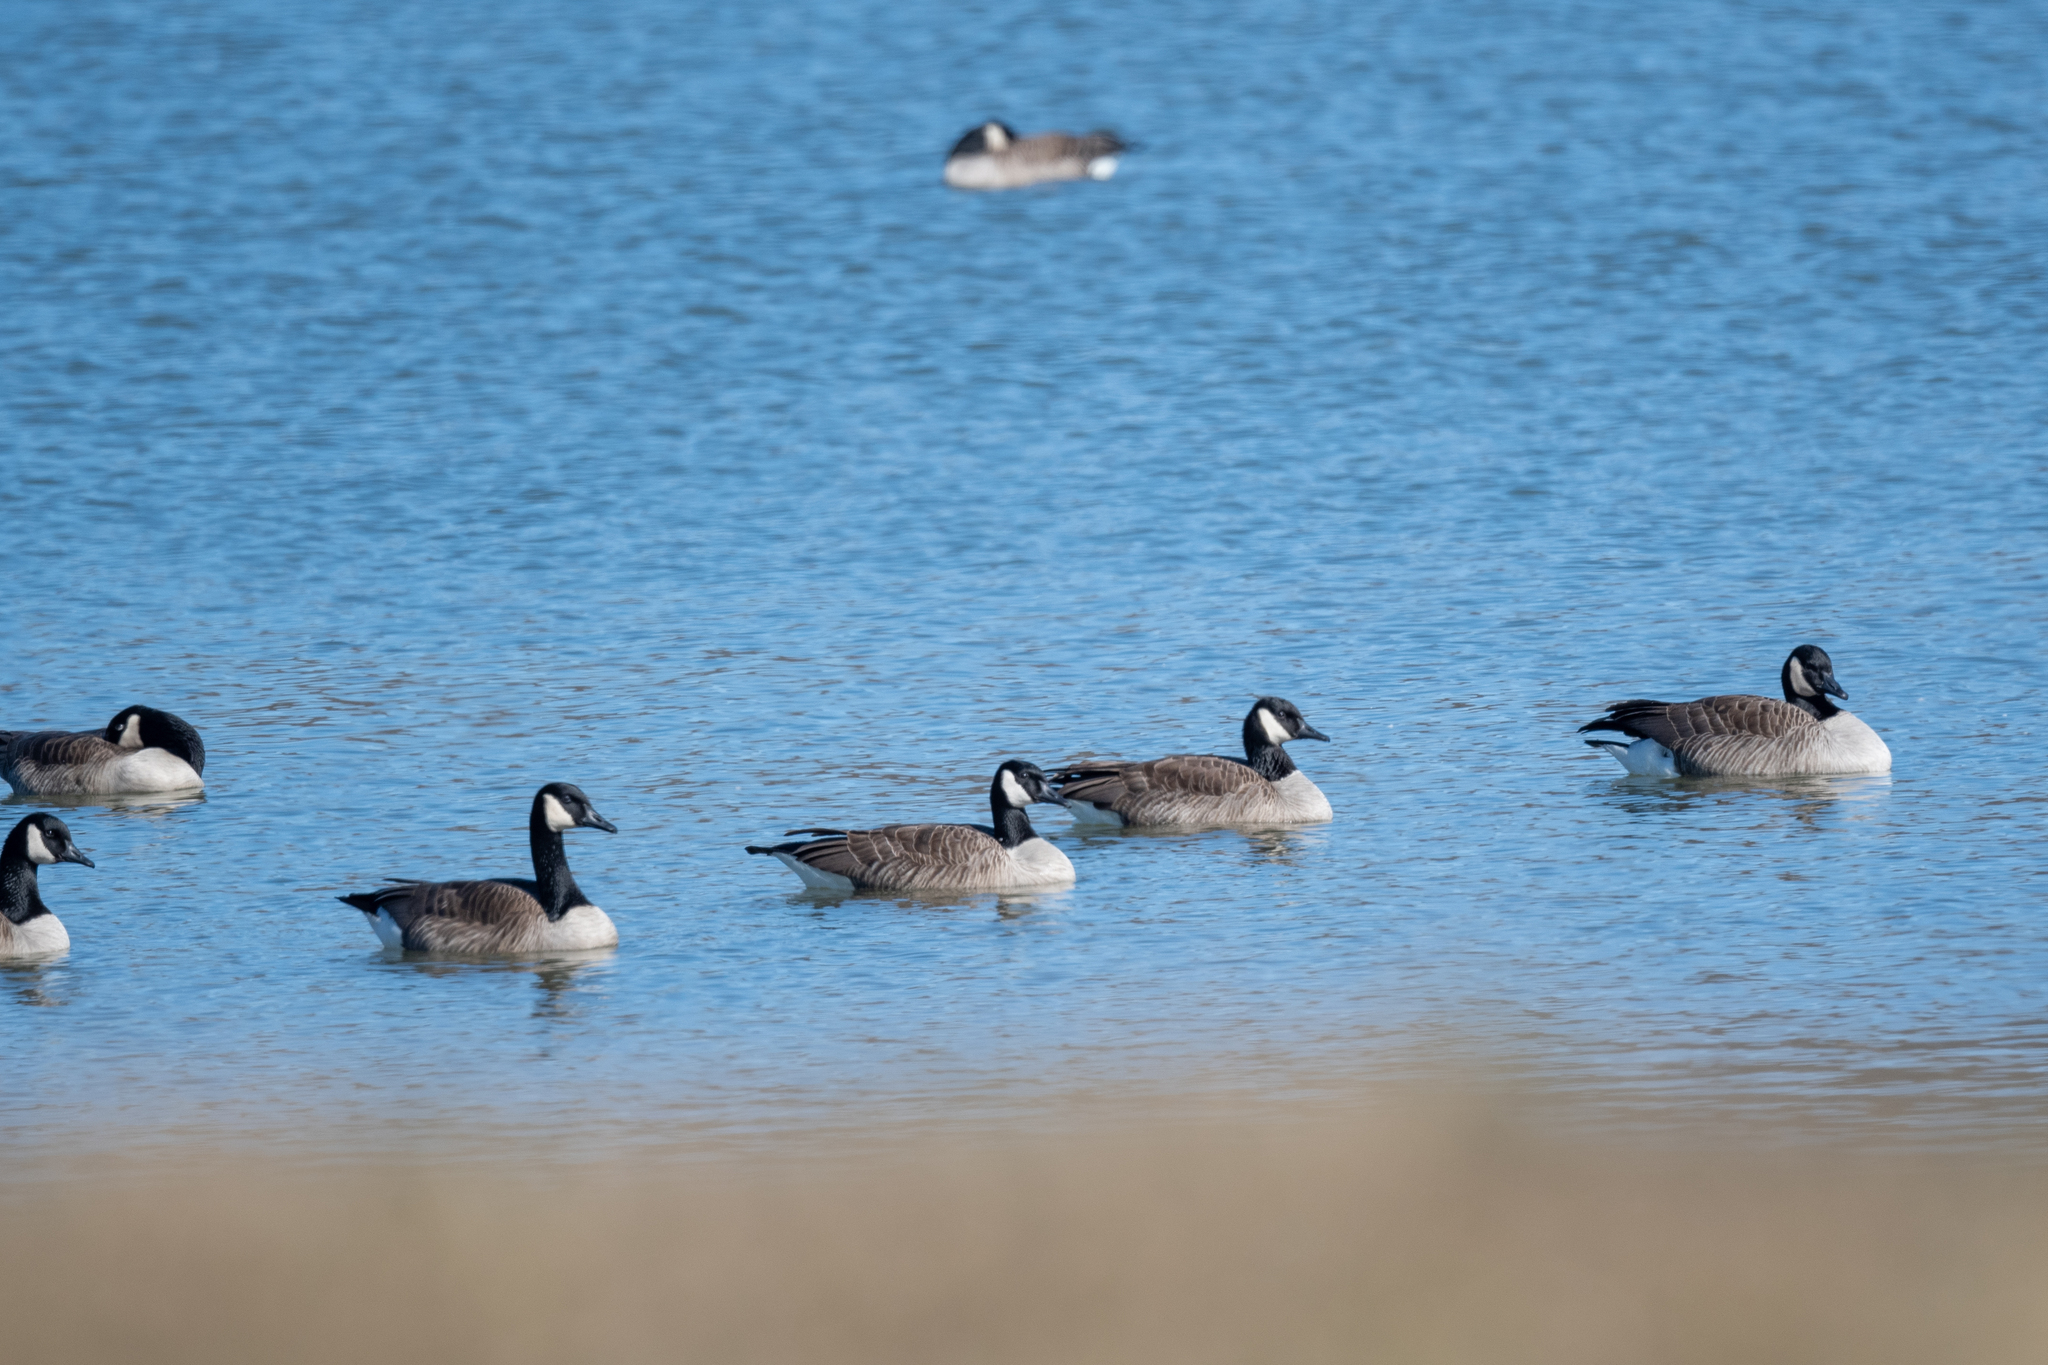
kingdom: Animalia
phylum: Chordata
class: Aves
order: Anseriformes
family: Anatidae
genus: Branta
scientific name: Branta canadensis
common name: Canada goose
